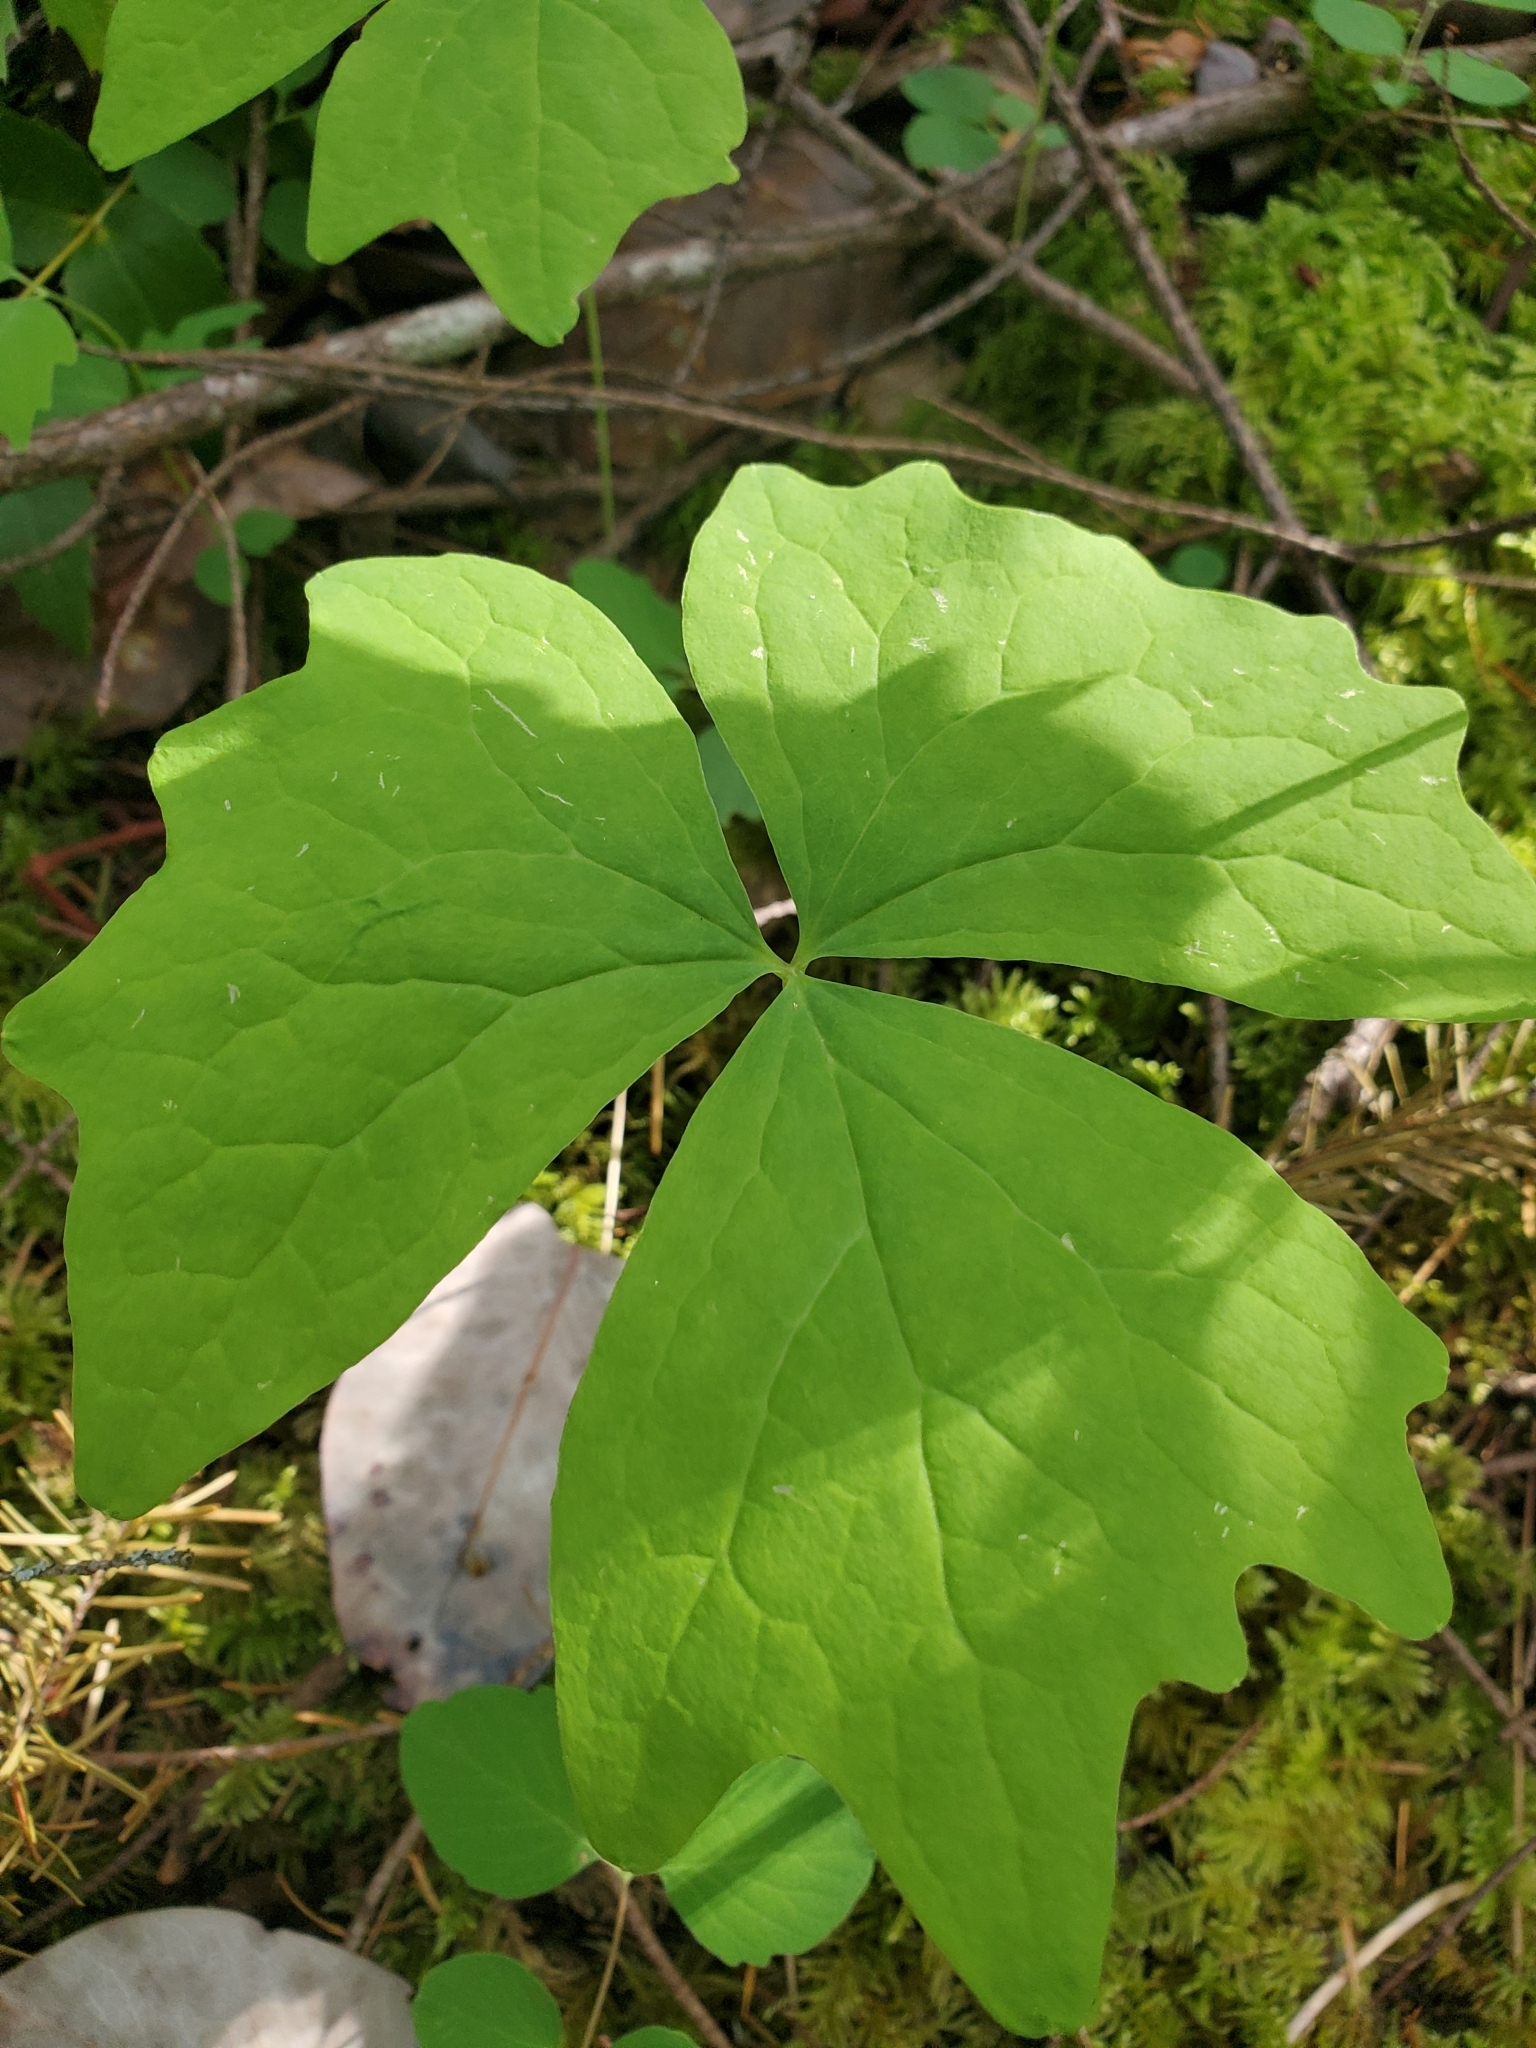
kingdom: Plantae
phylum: Tracheophyta
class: Magnoliopsida
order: Ranunculales
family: Berberidaceae
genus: Achlys
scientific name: Achlys triphylla
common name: Vanilla-leaf
